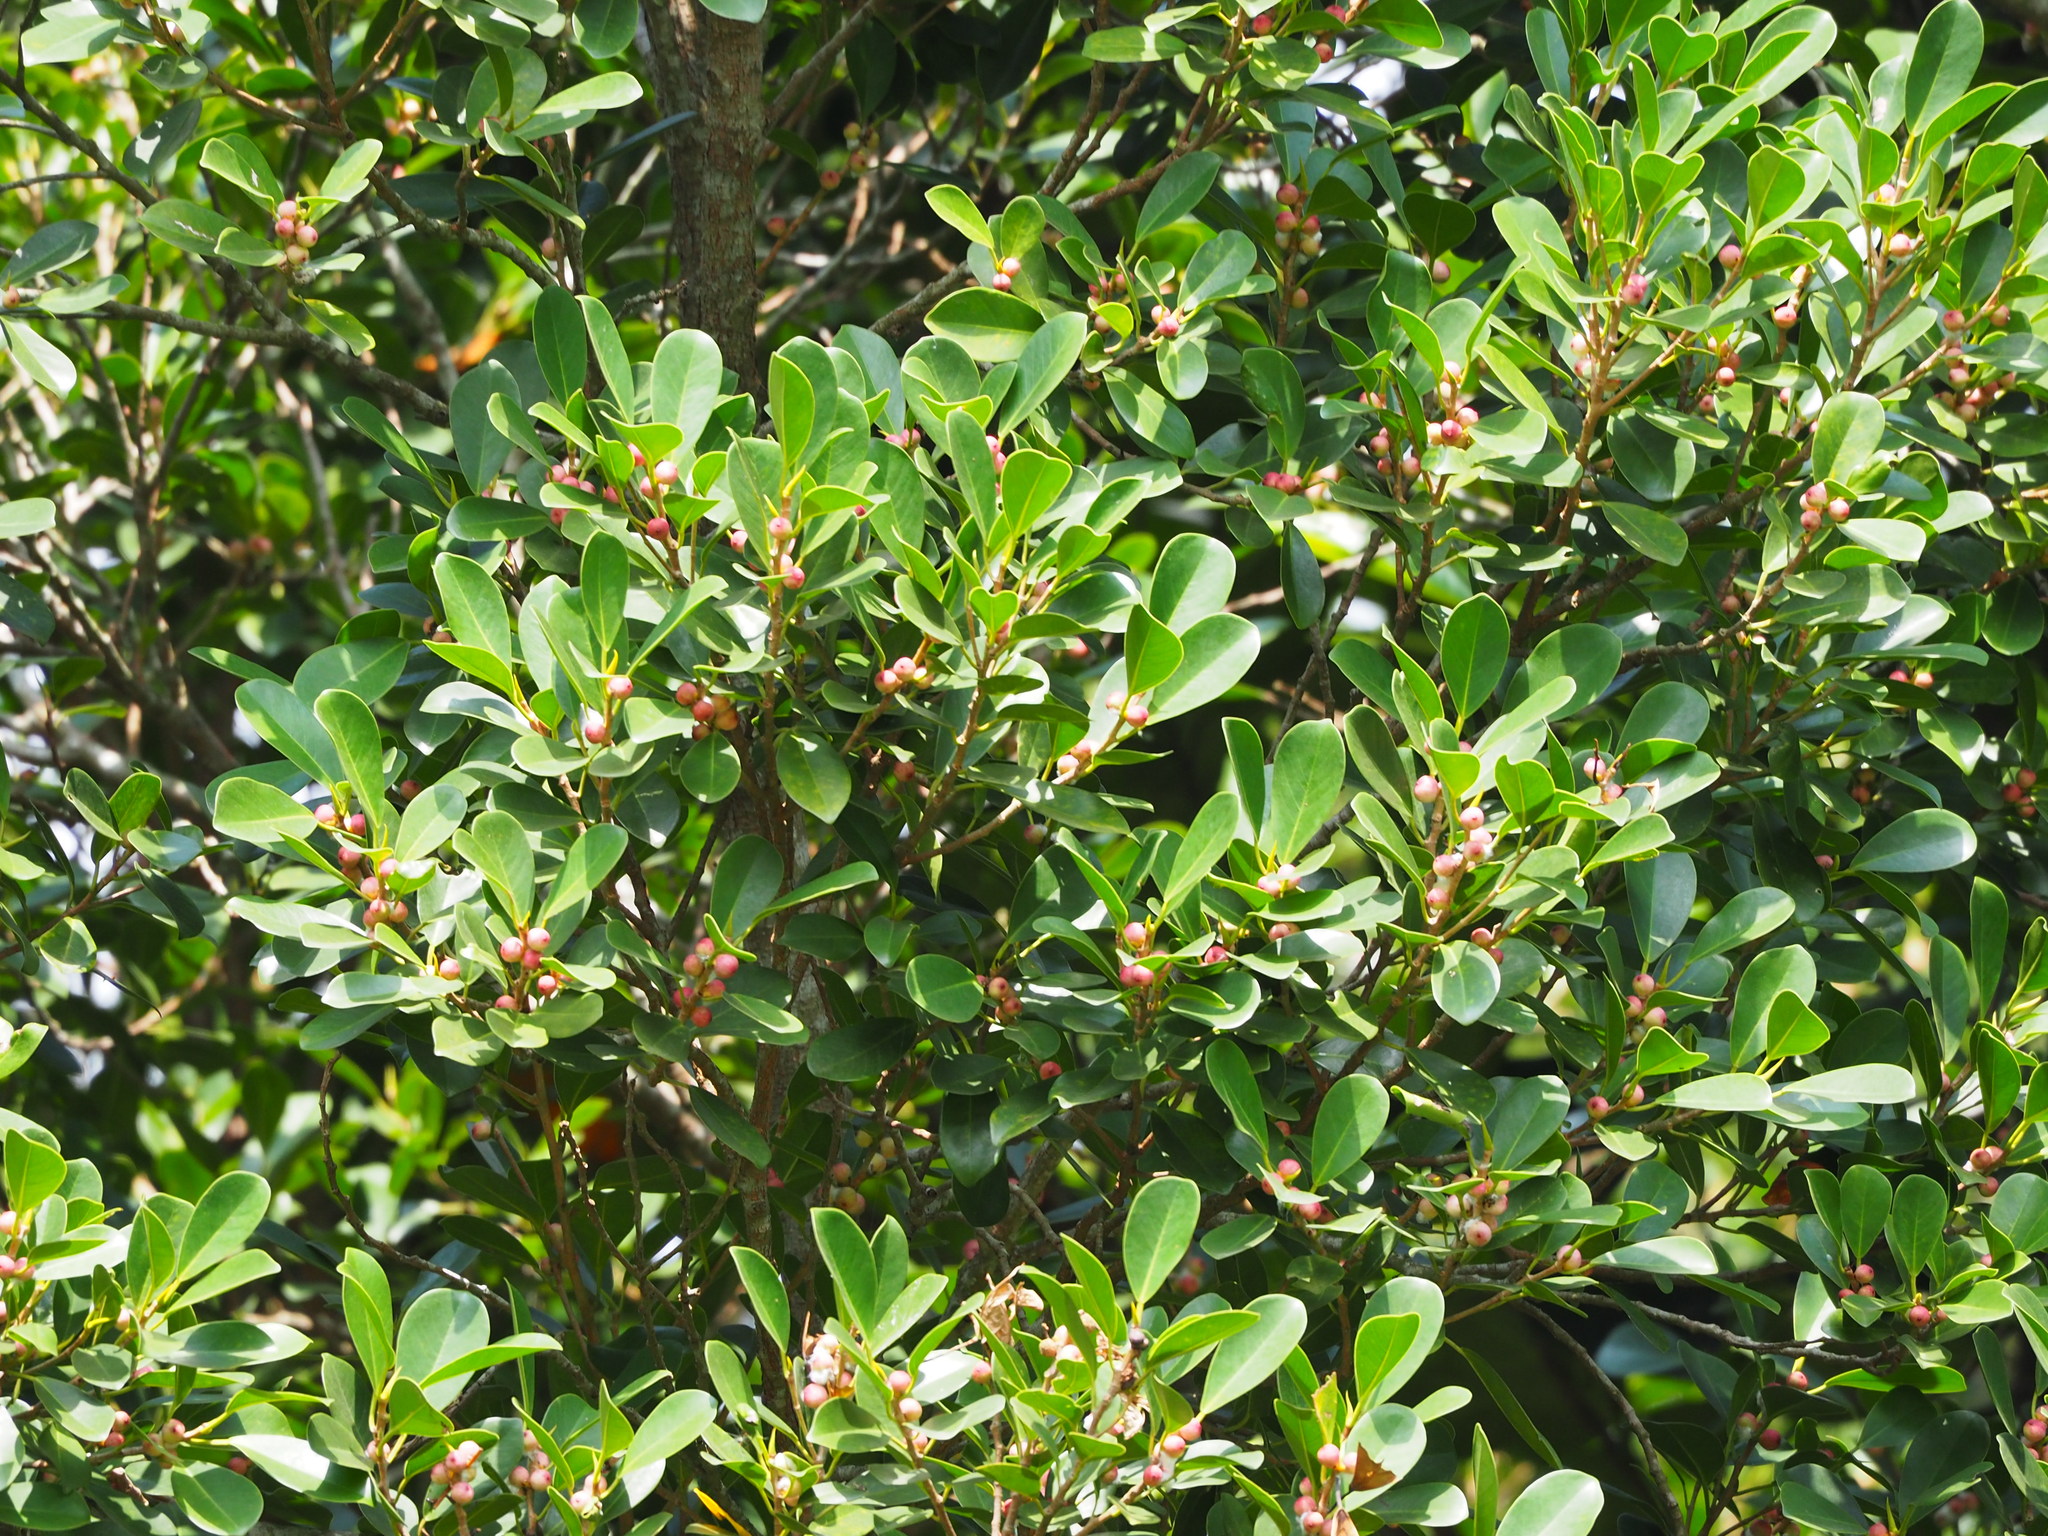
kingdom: Plantae
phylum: Tracheophyta
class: Magnoliopsida
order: Rosales
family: Moraceae
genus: Ficus
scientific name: Ficus microcarpa
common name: Chinese banyan
